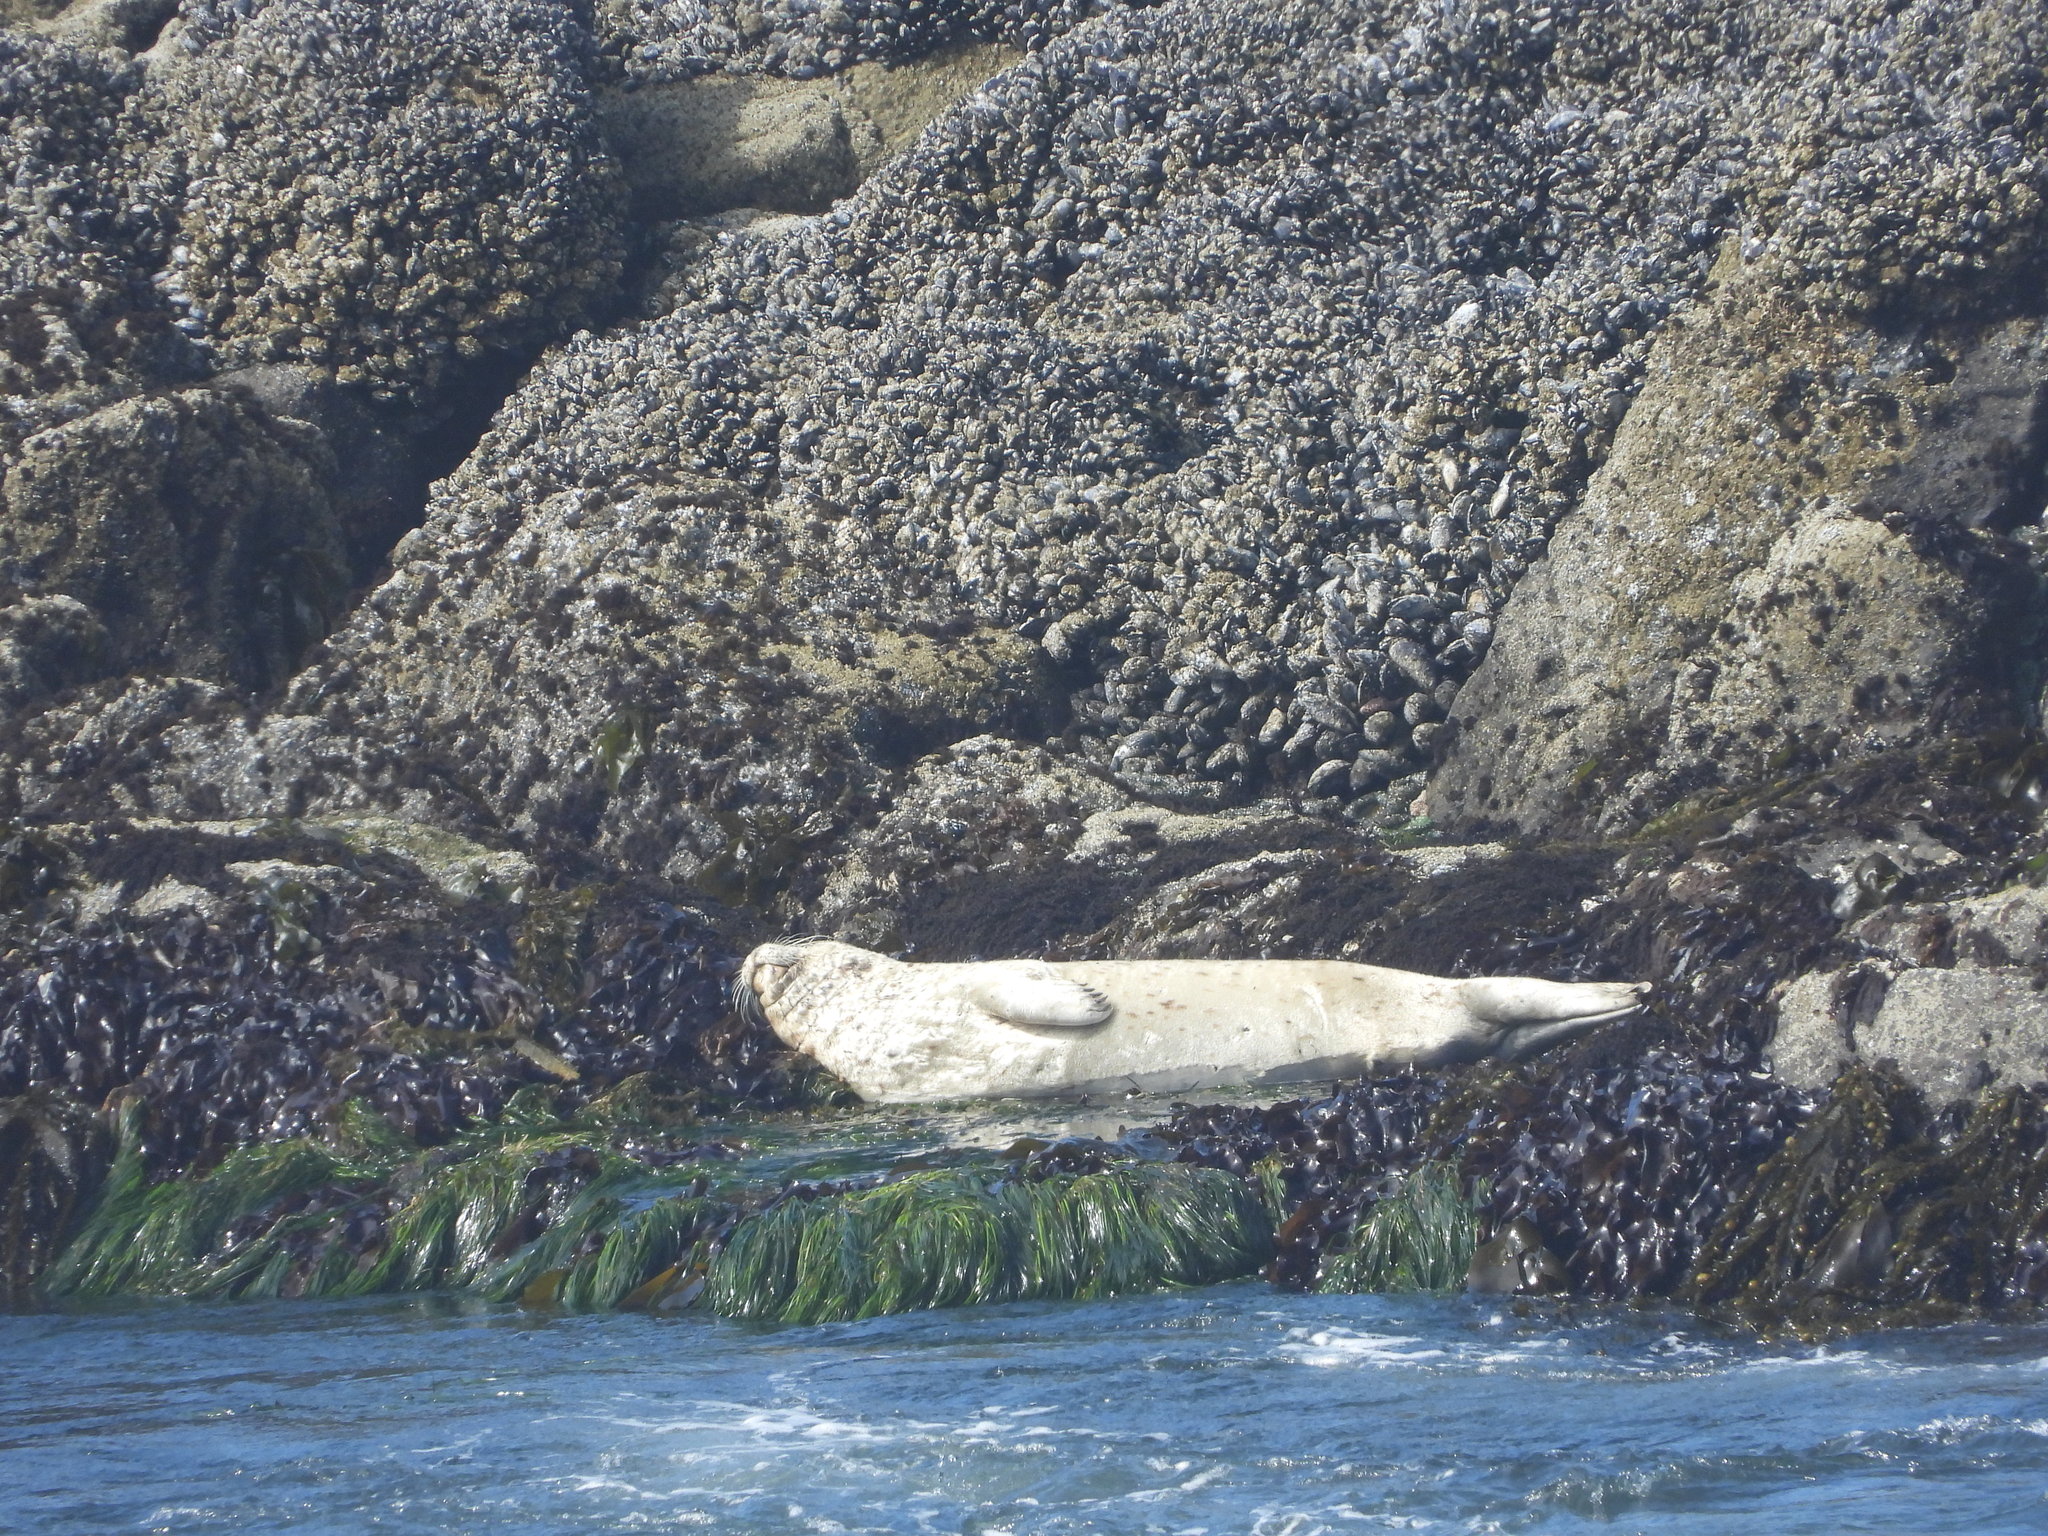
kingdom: Animalia
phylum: Chordata
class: Mammalia
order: Carnivora
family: Phocidae
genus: Phoca
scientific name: Phoca vitulina
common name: Harbor seal
